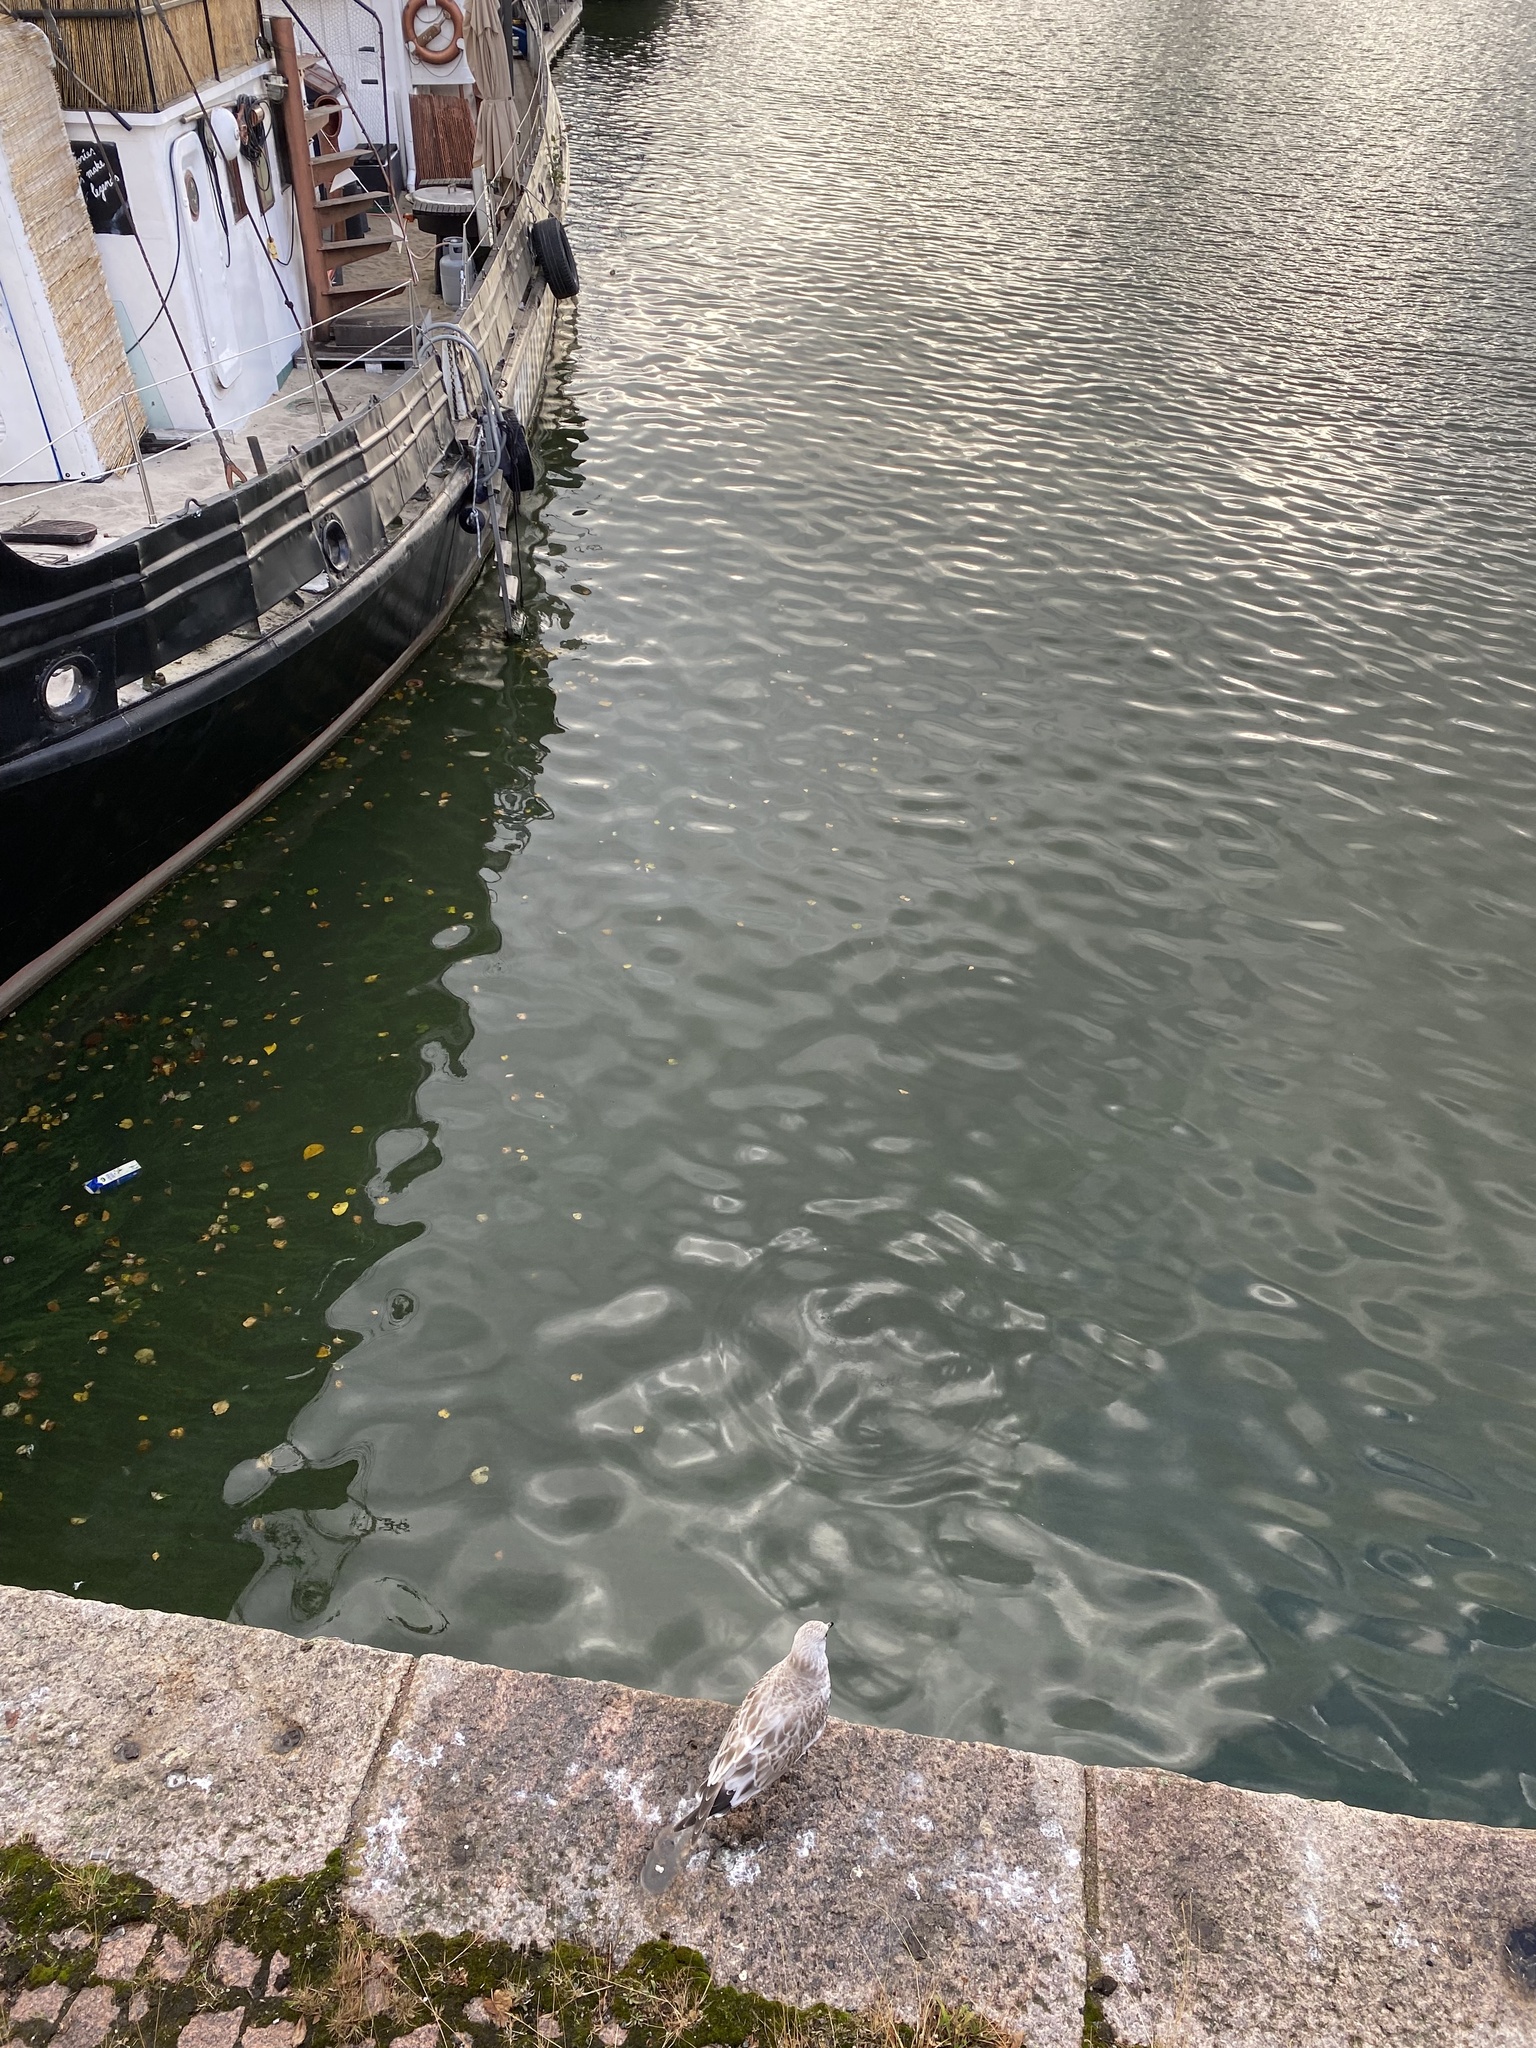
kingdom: Animalia
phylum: Chordata
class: Aves
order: Charadriiformes
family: Laridae
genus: Larus
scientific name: Larus canus
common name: Mew gull
